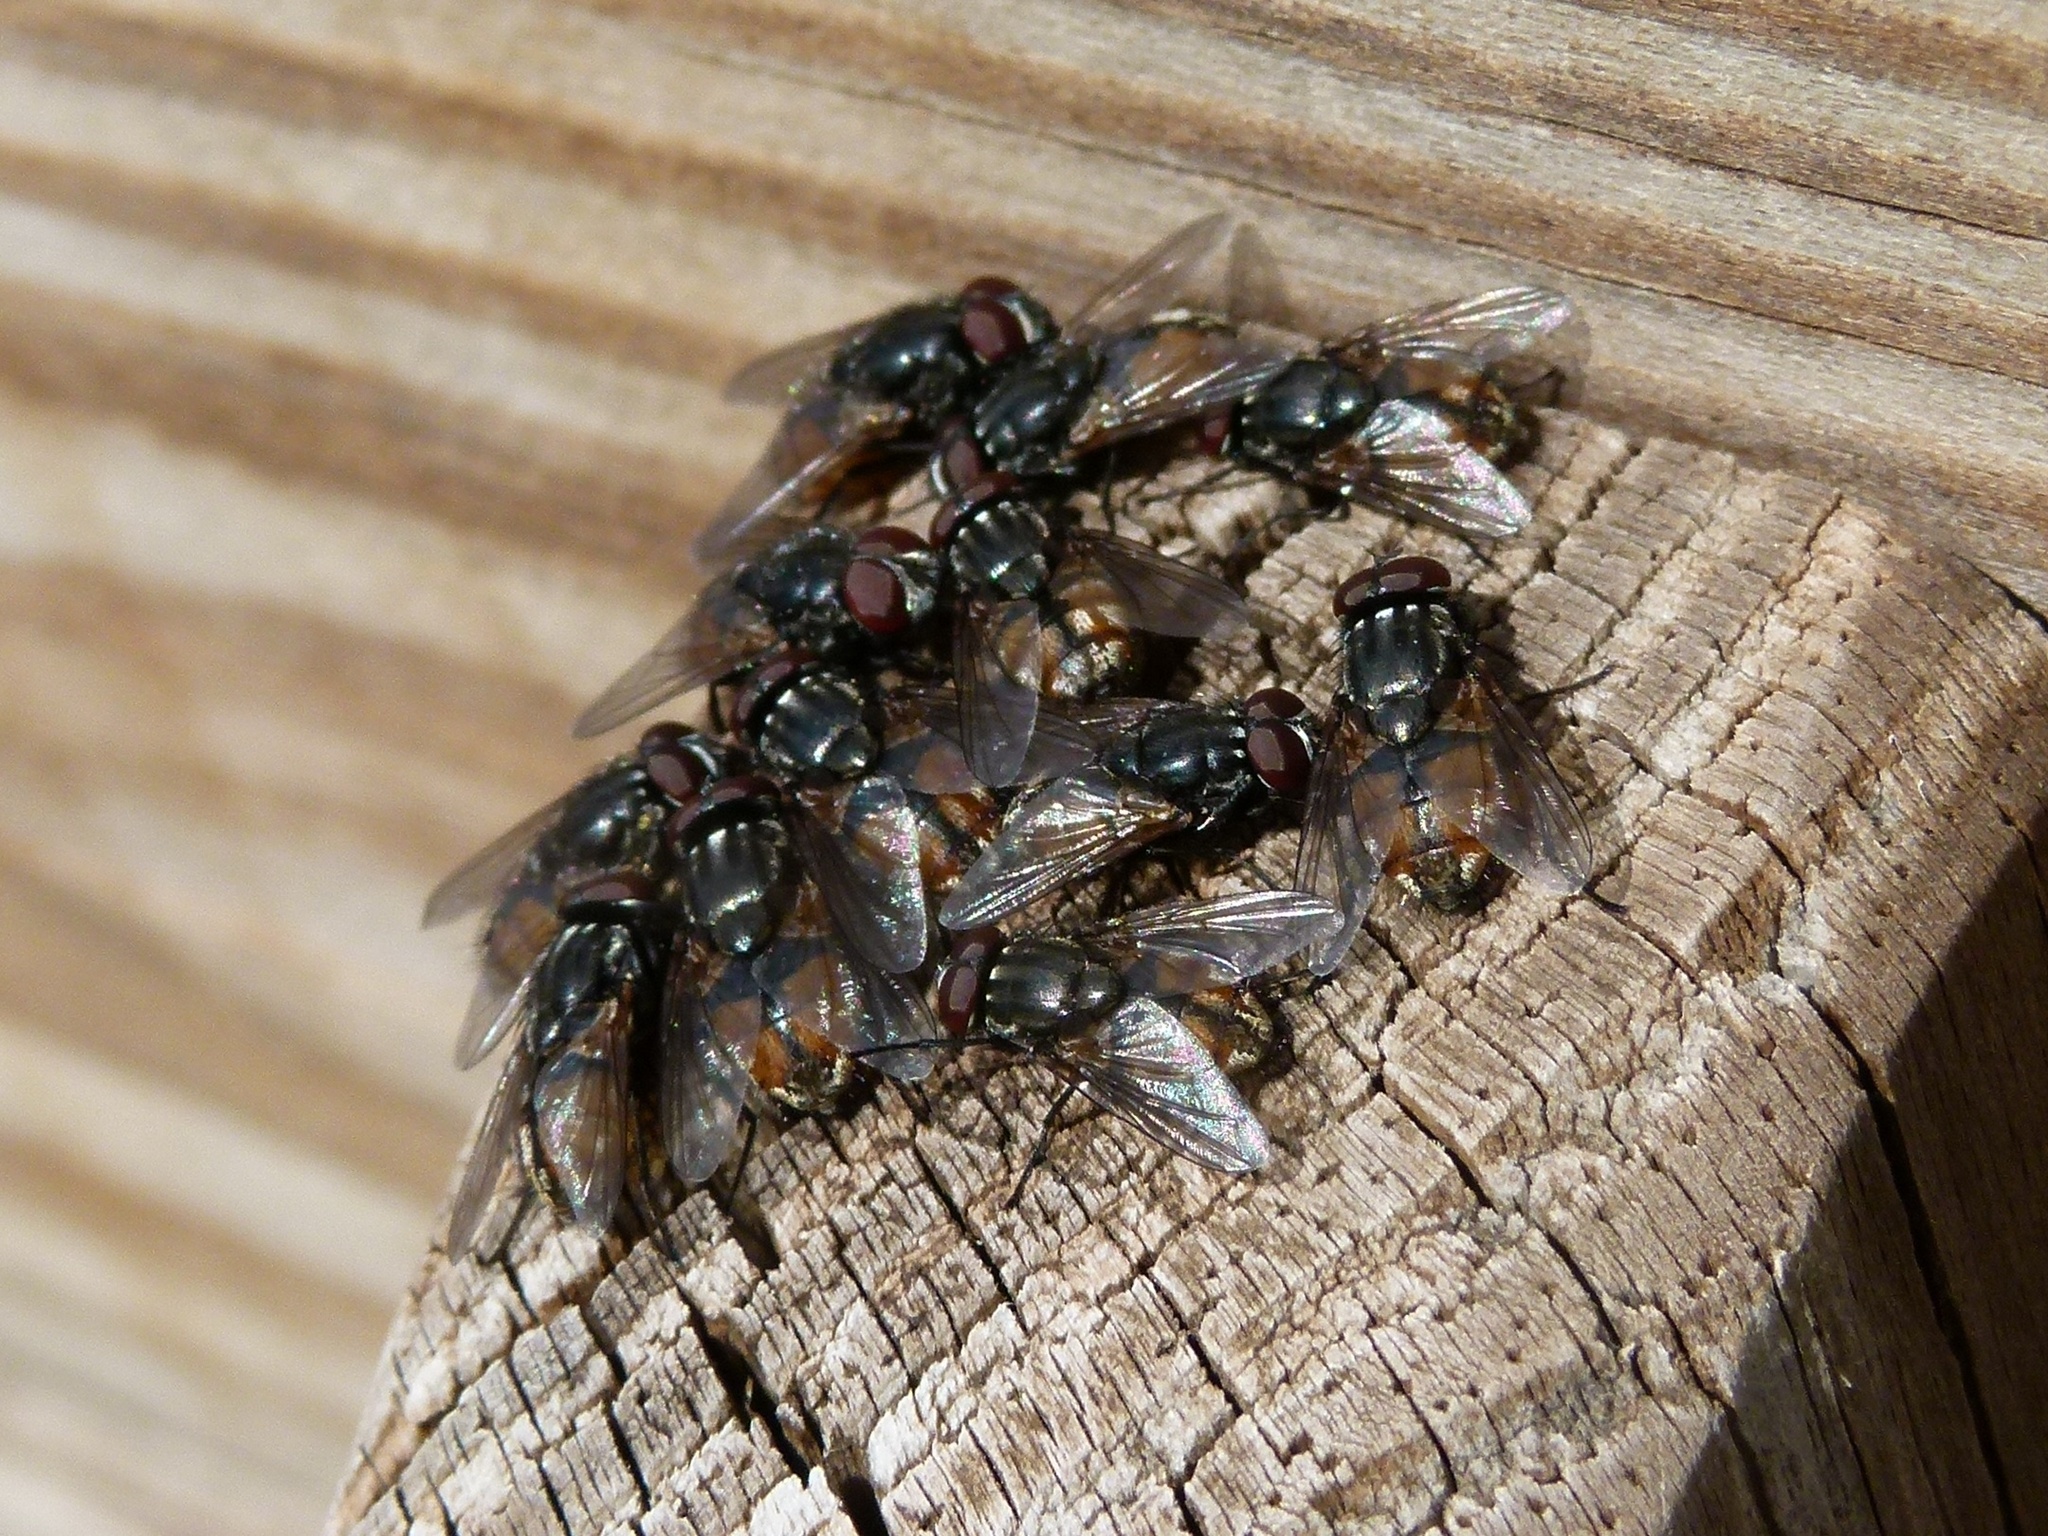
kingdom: Animalia
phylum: Arthropoda
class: Insecta
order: Diptera
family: Muscidae
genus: Musca
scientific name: Musca autumnalis
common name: Face fly
